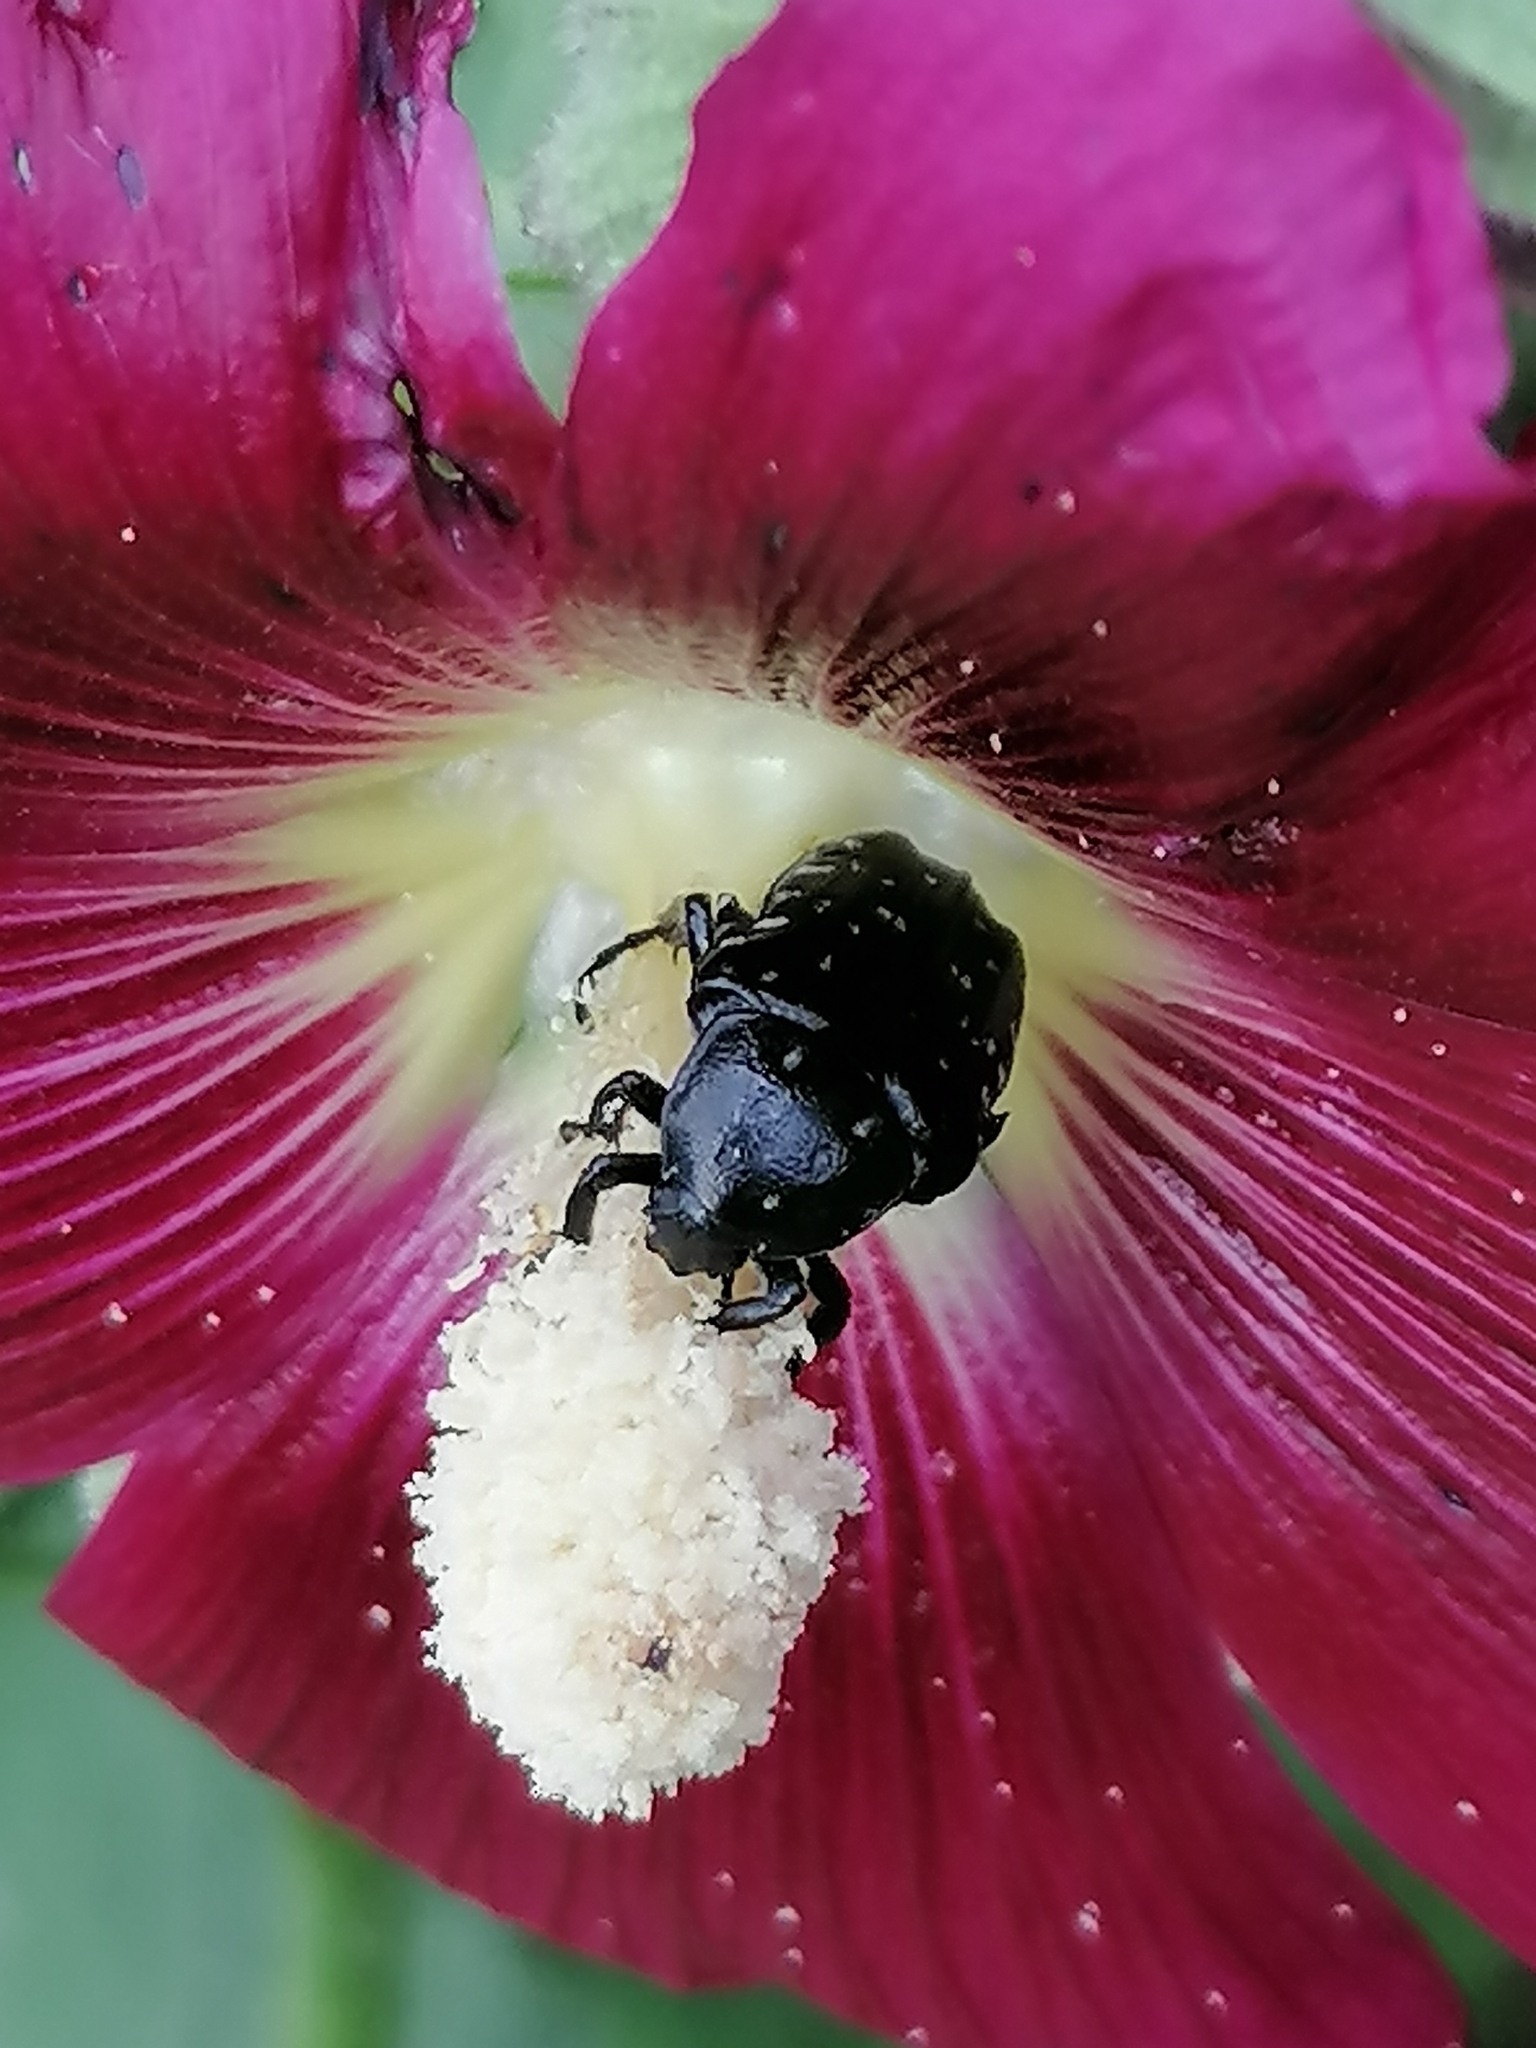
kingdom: Animalia
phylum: Arthropoda
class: Insecta
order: Coleoptera
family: Scarabaeidae
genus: Oxythyrea
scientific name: Oxythyrea funesta
